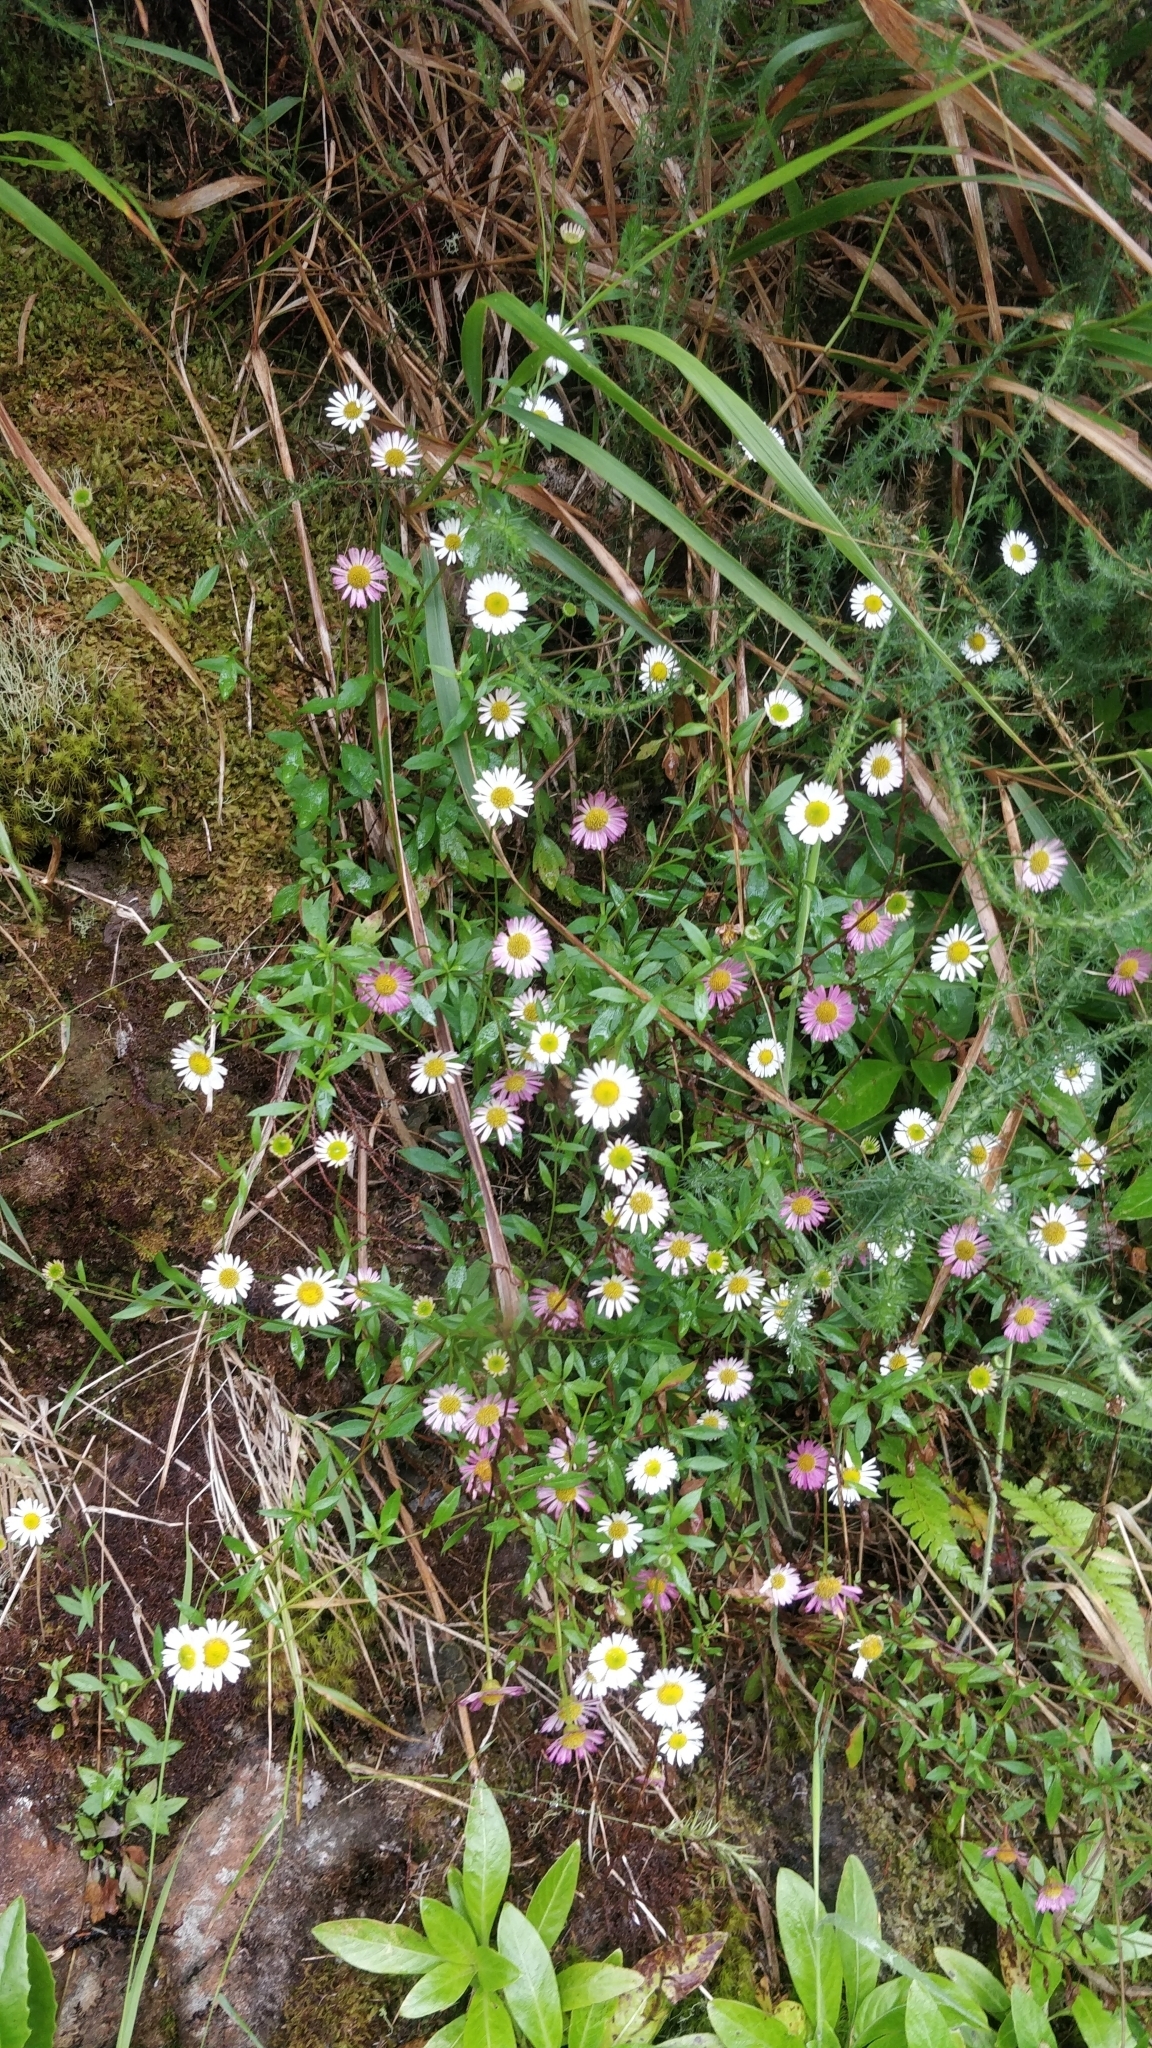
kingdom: Plantae
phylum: Tracheophyta
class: Magnoliopsida
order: Asterales
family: Asteraceae
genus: Erigeron
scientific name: Erigeron karvinskianus
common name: Mexican fleabane
